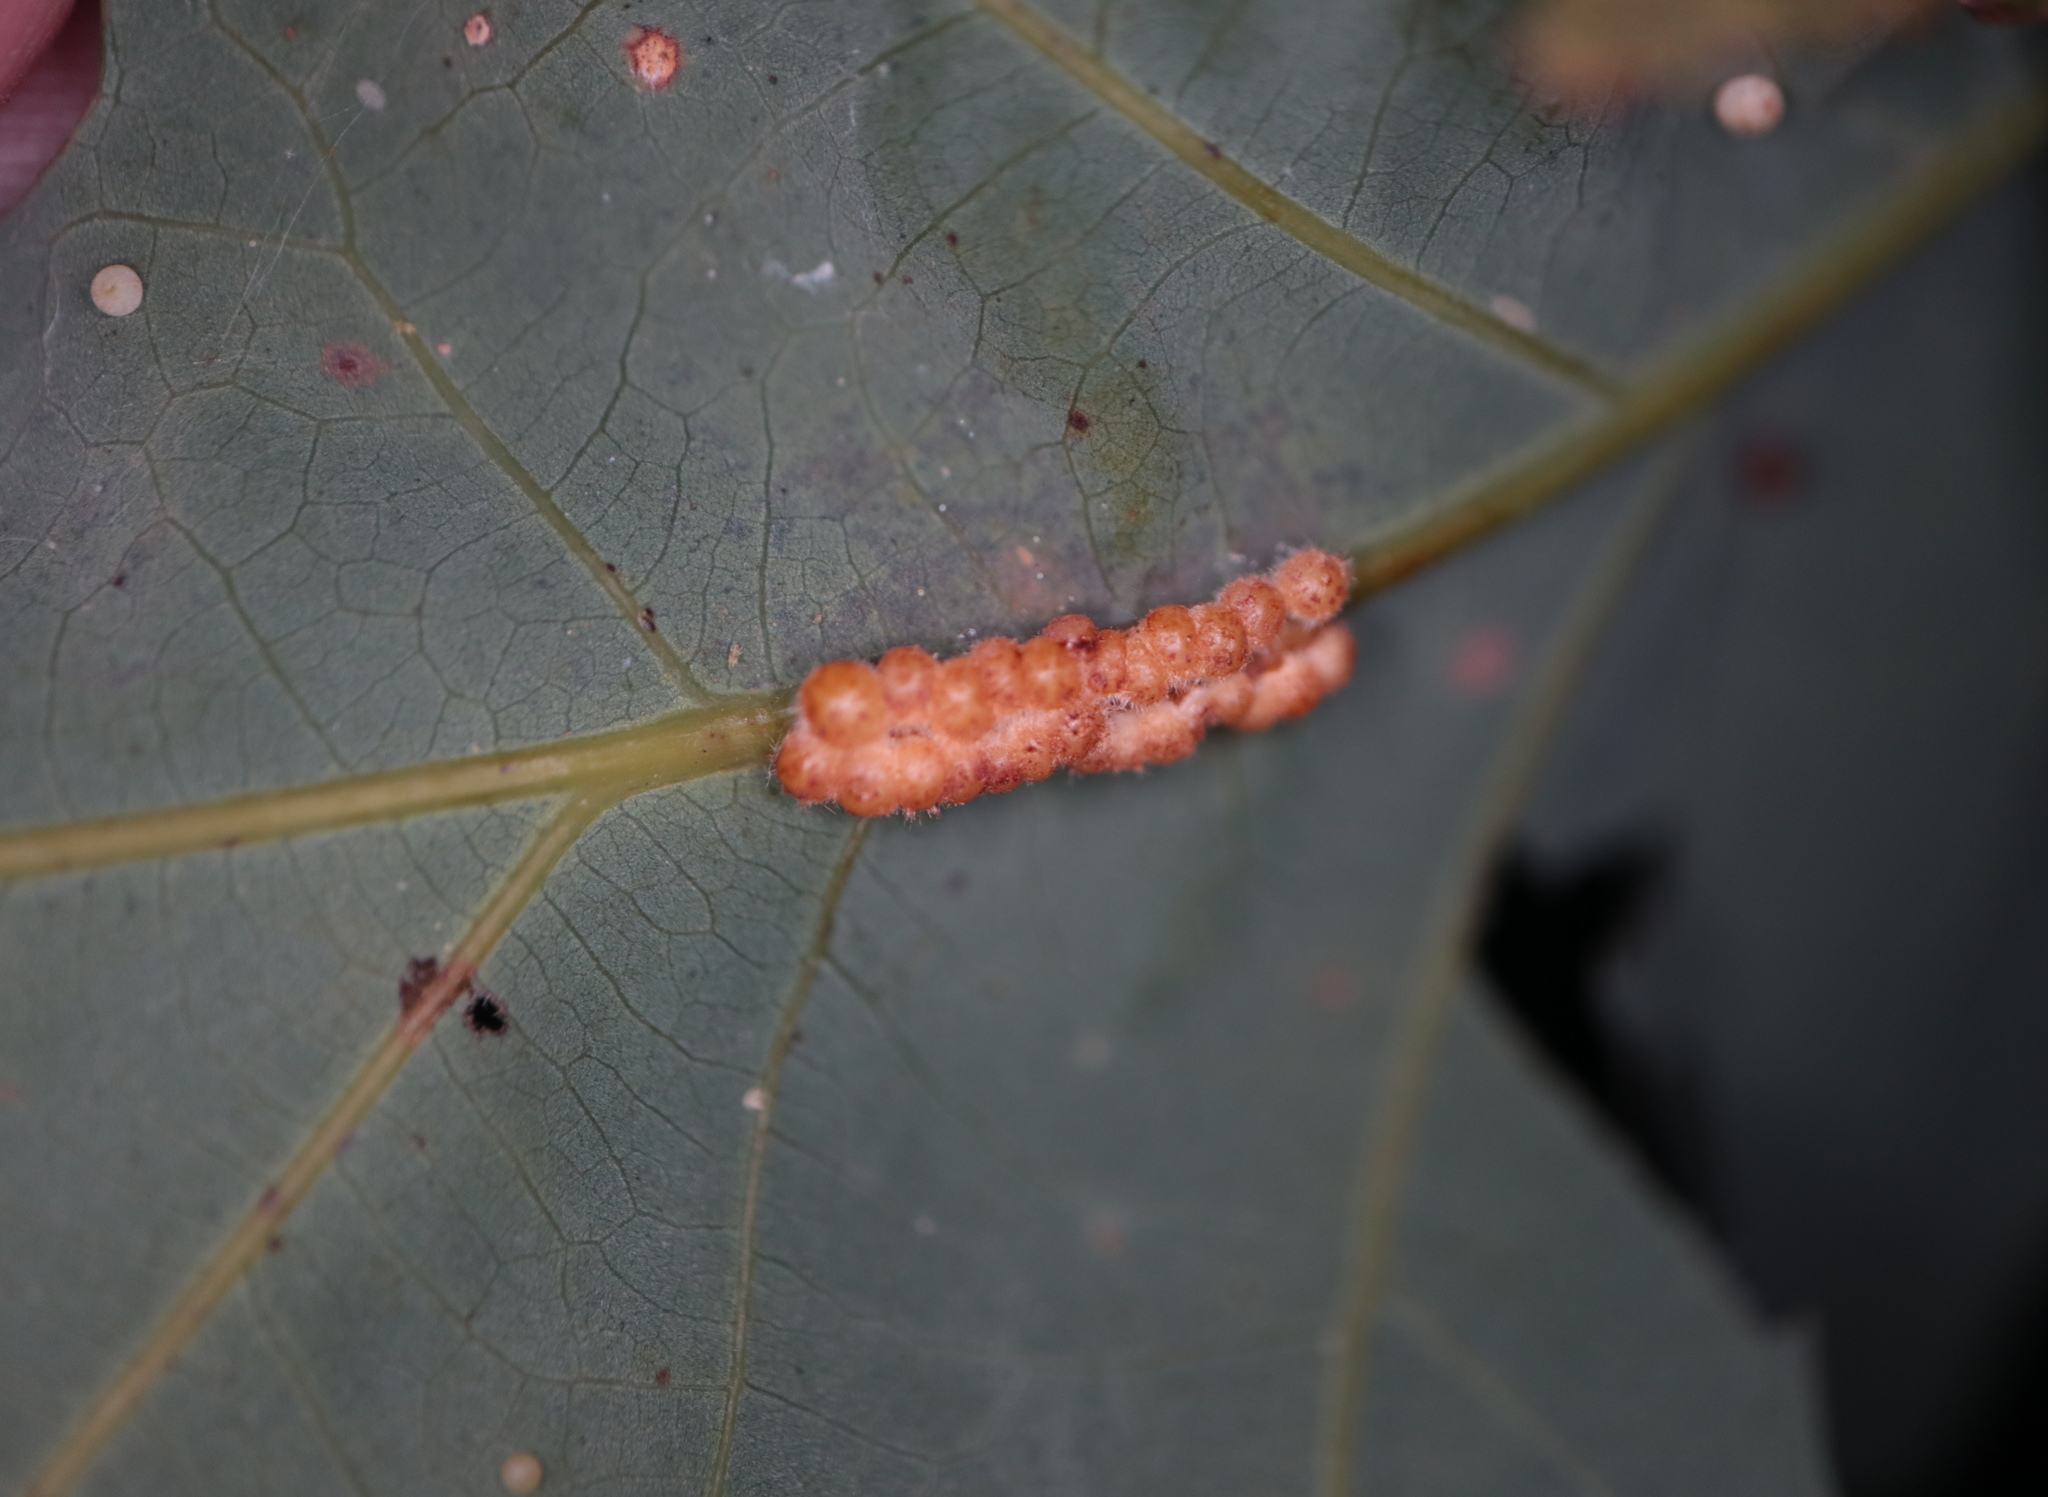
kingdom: Animalia
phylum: Arthropoda
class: Insecta
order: Hymenoptera
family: Cynipidae
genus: Andricus
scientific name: Andricus
